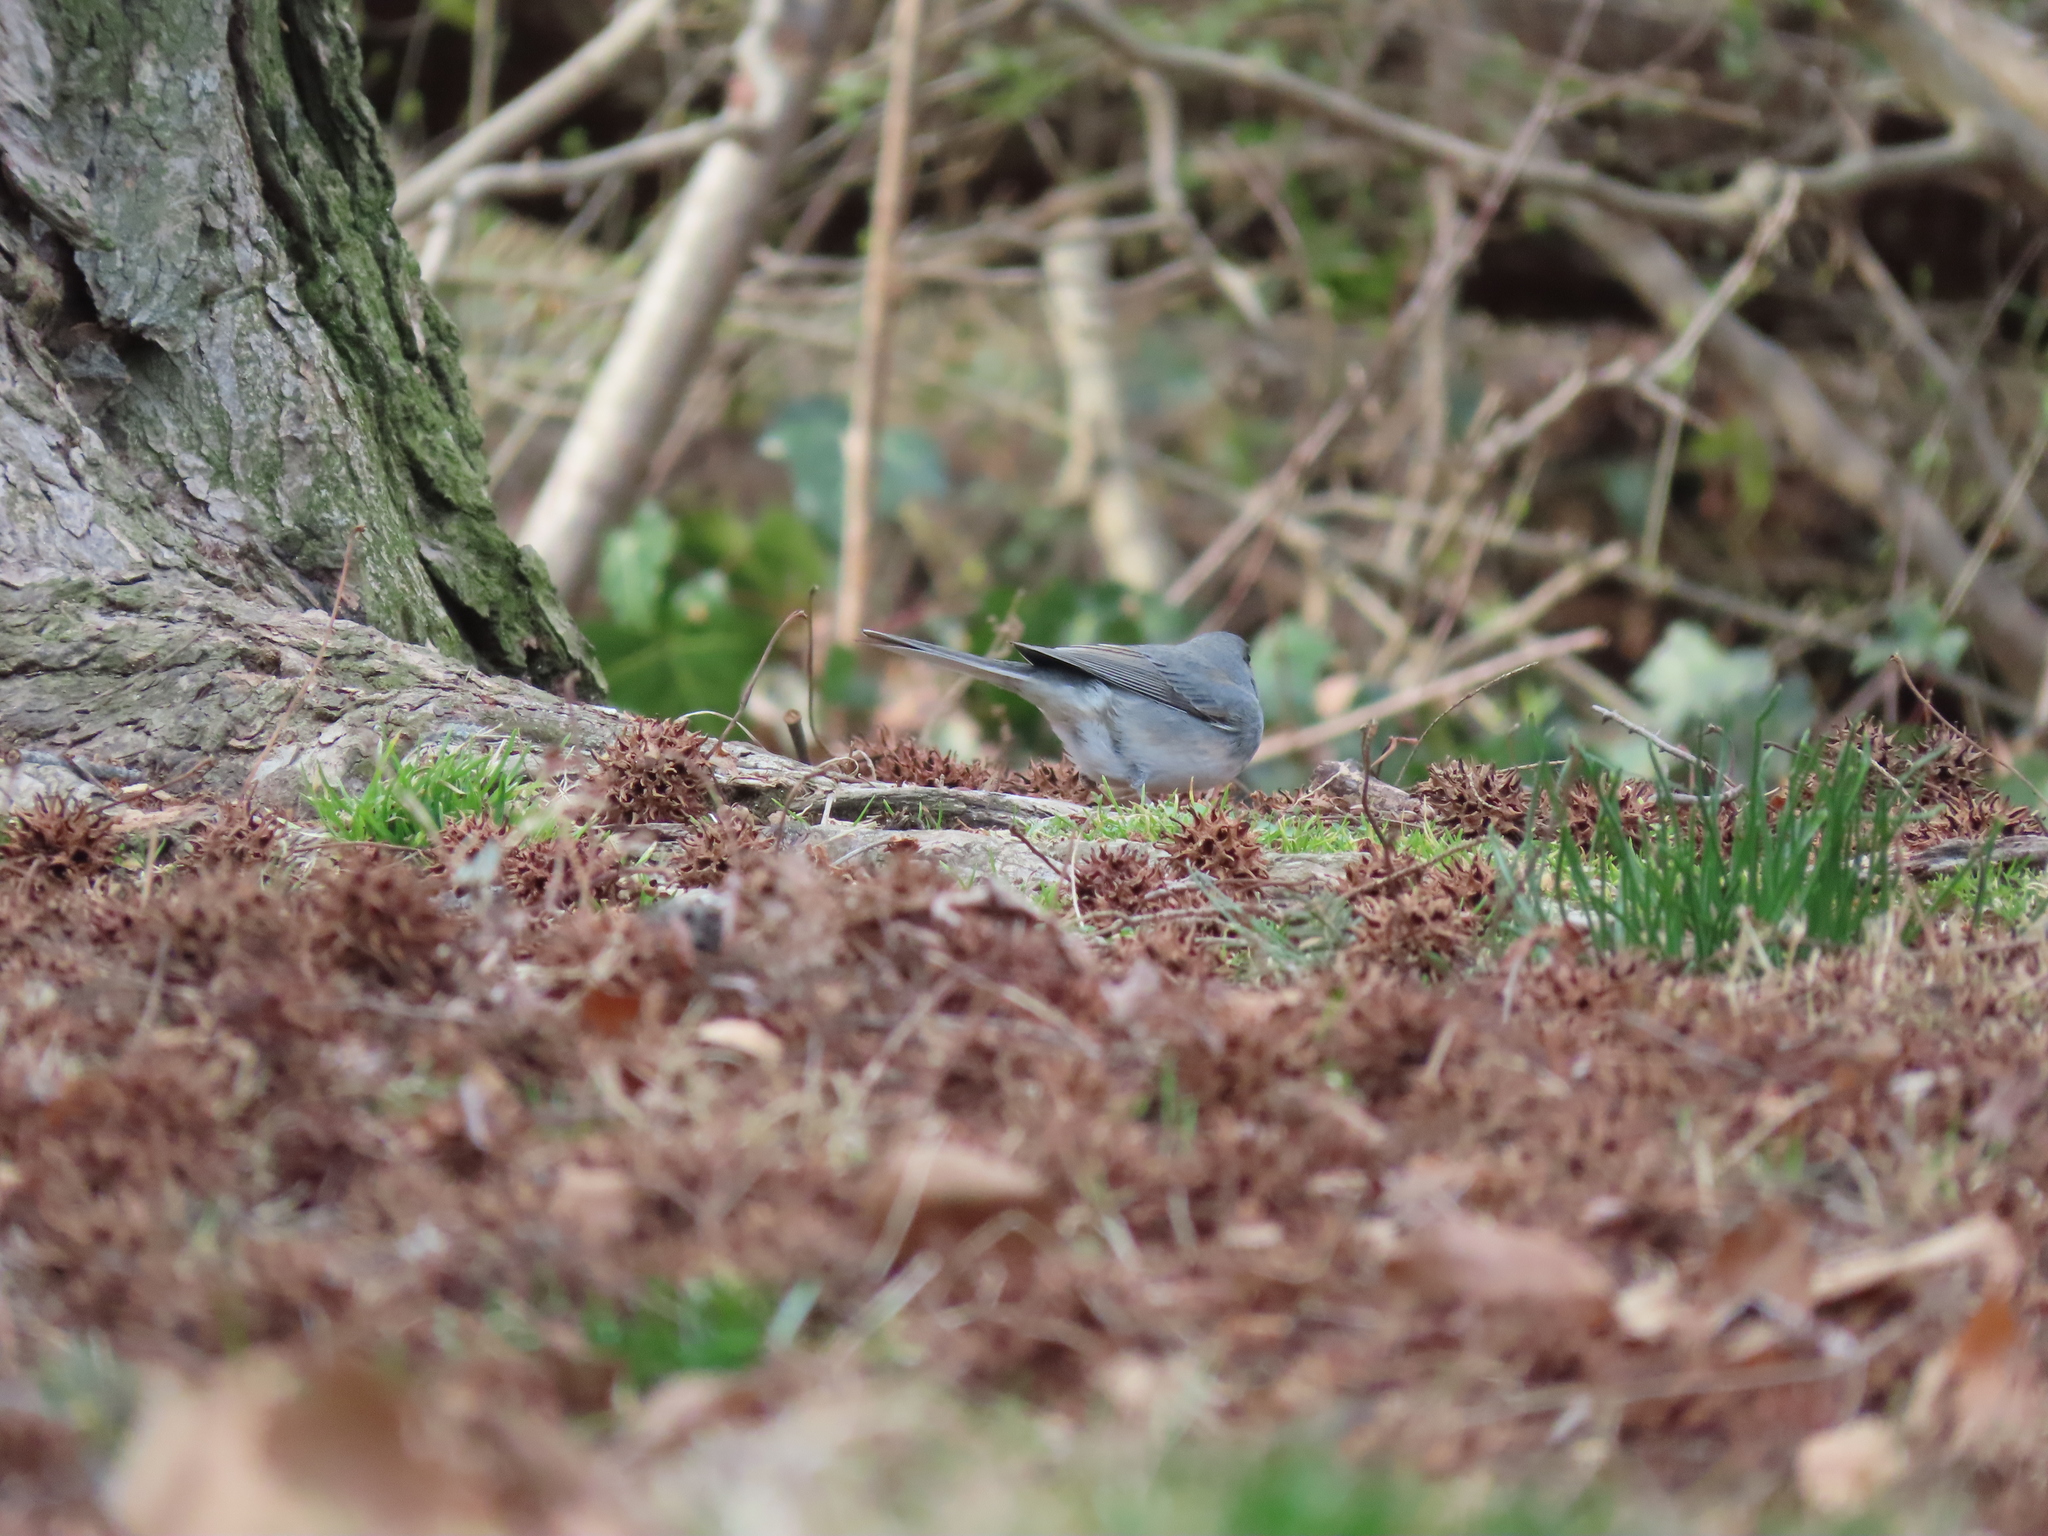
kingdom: Animalia
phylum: Chordata
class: Aves
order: Passeriformes
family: Passerellidae
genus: Junco
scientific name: Junco hyemalis
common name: Dark-eyed junco
